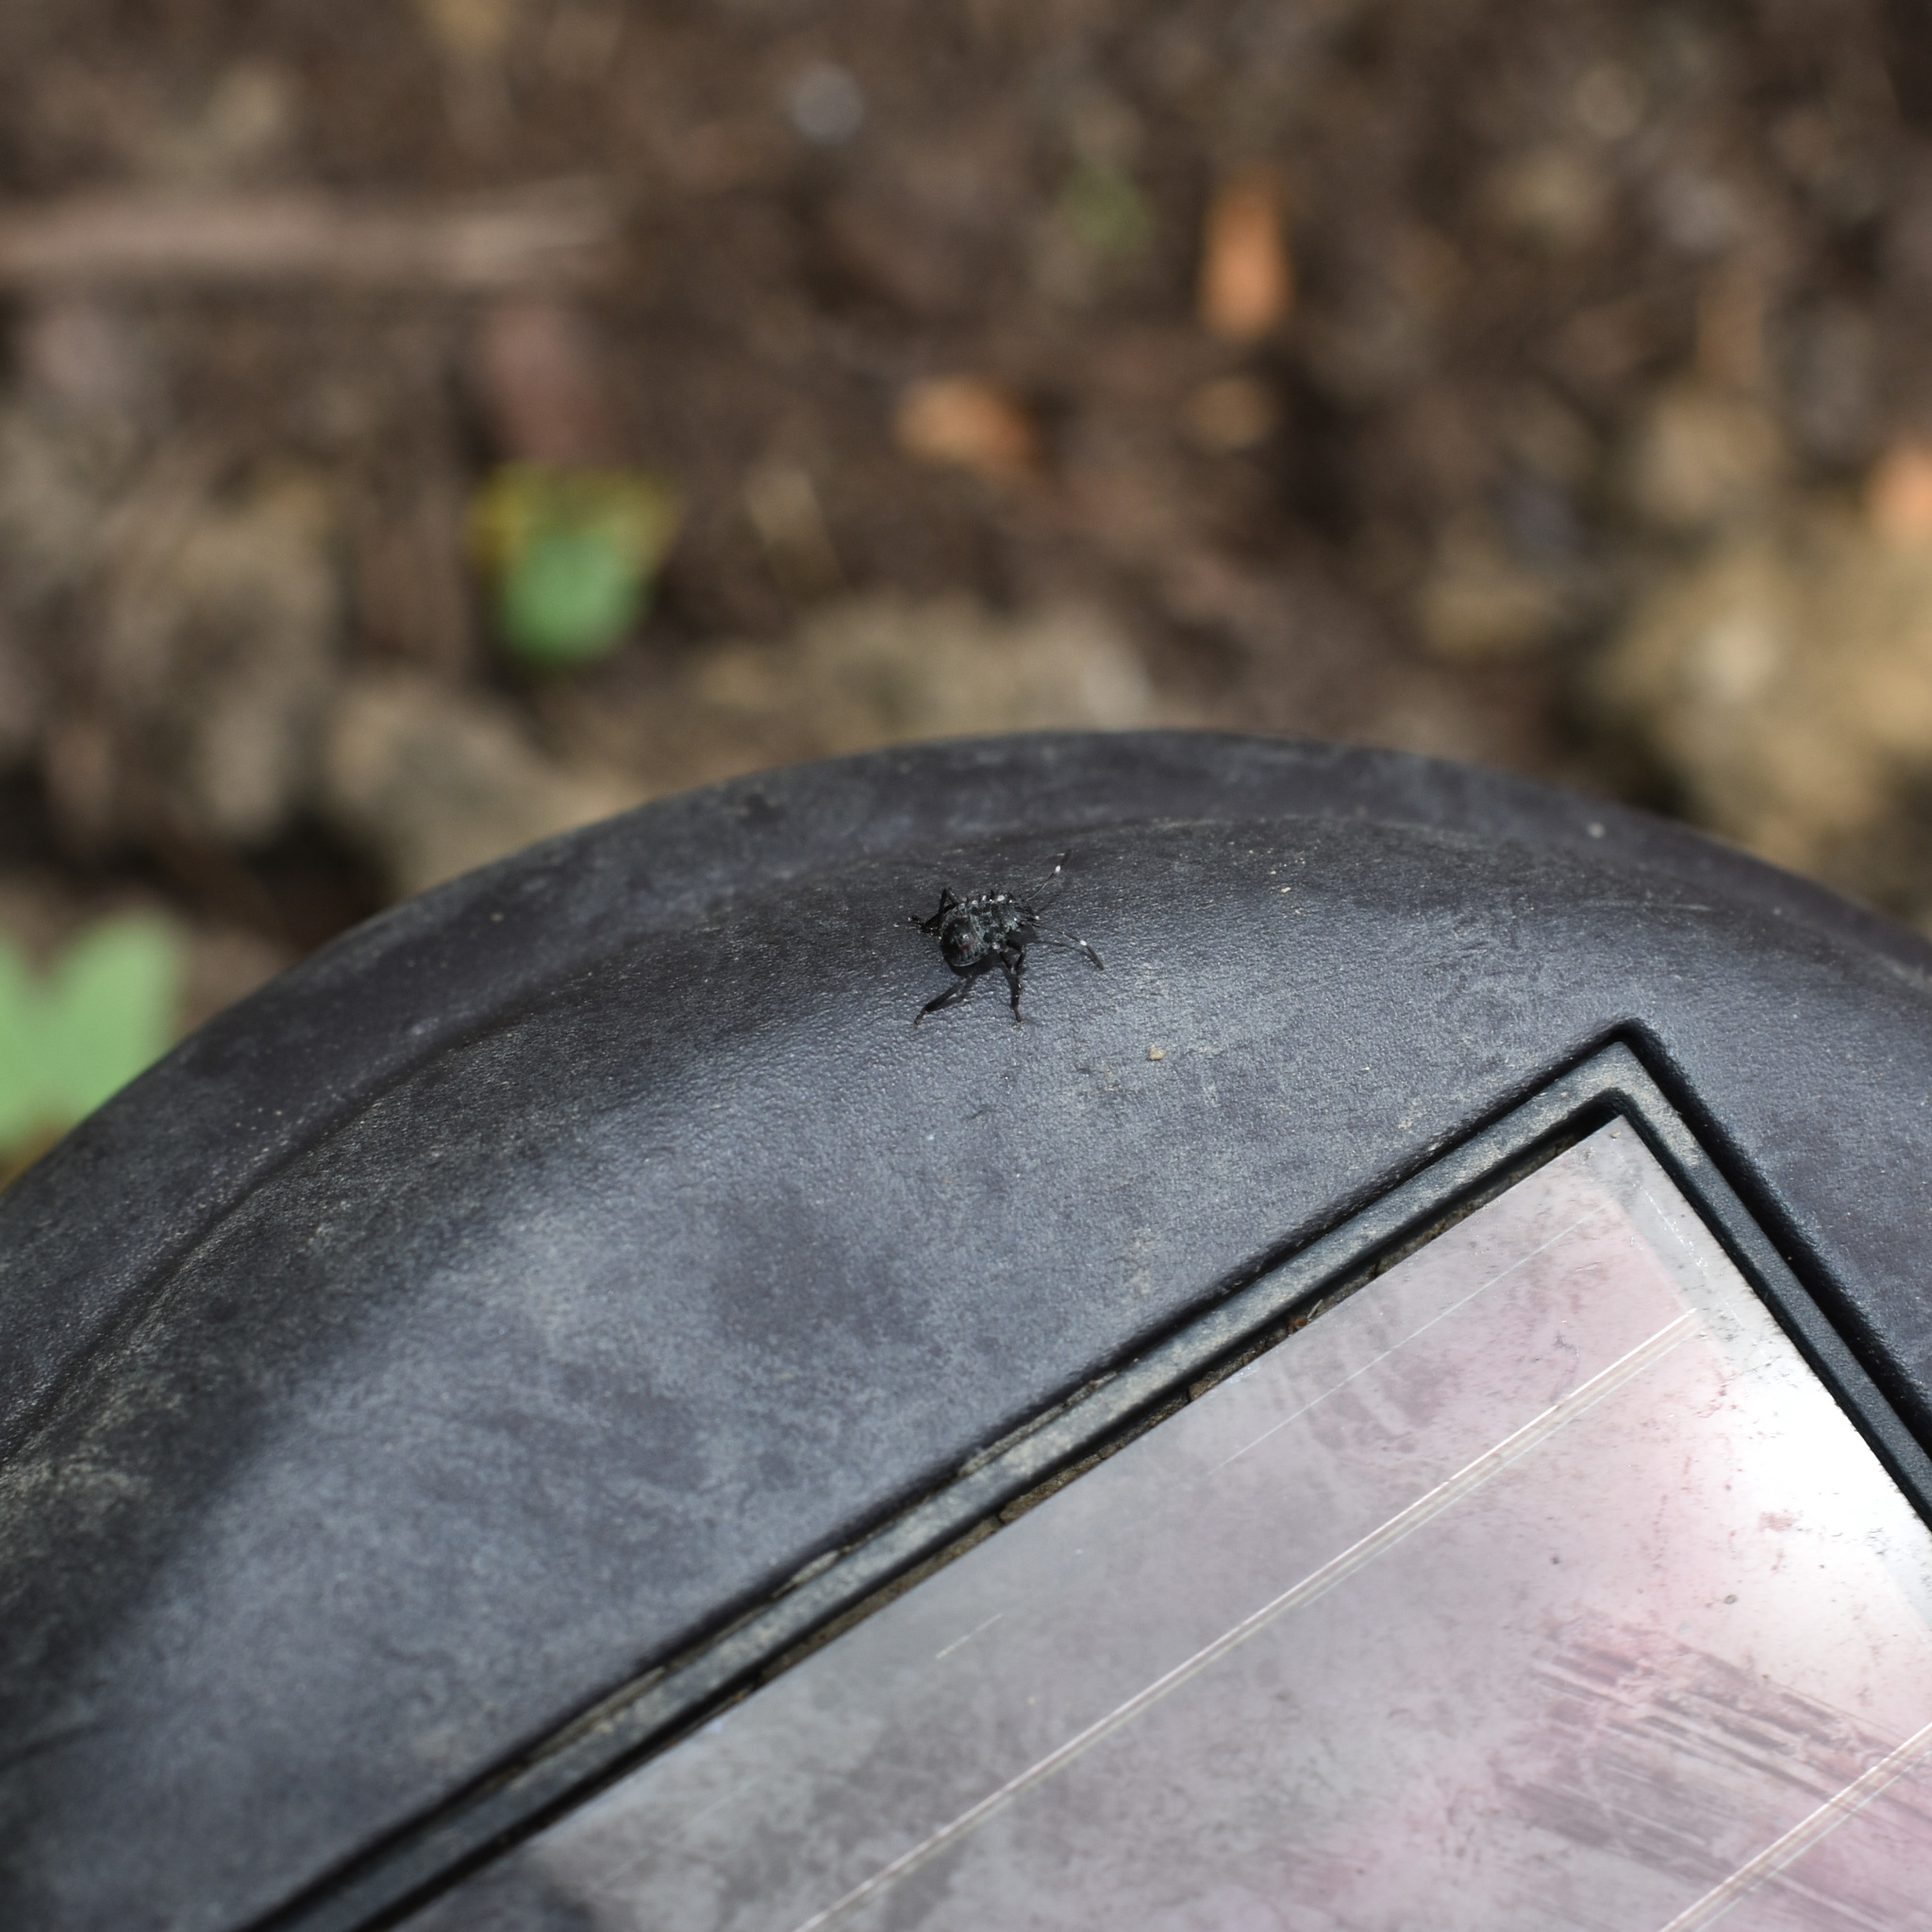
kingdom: Animalia
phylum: Arthropoda
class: Insecta
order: Hemiptera
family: Pentatomidae
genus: Halyomorpha
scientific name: Halyomorpha halys
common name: Brown marmorated stink bug
